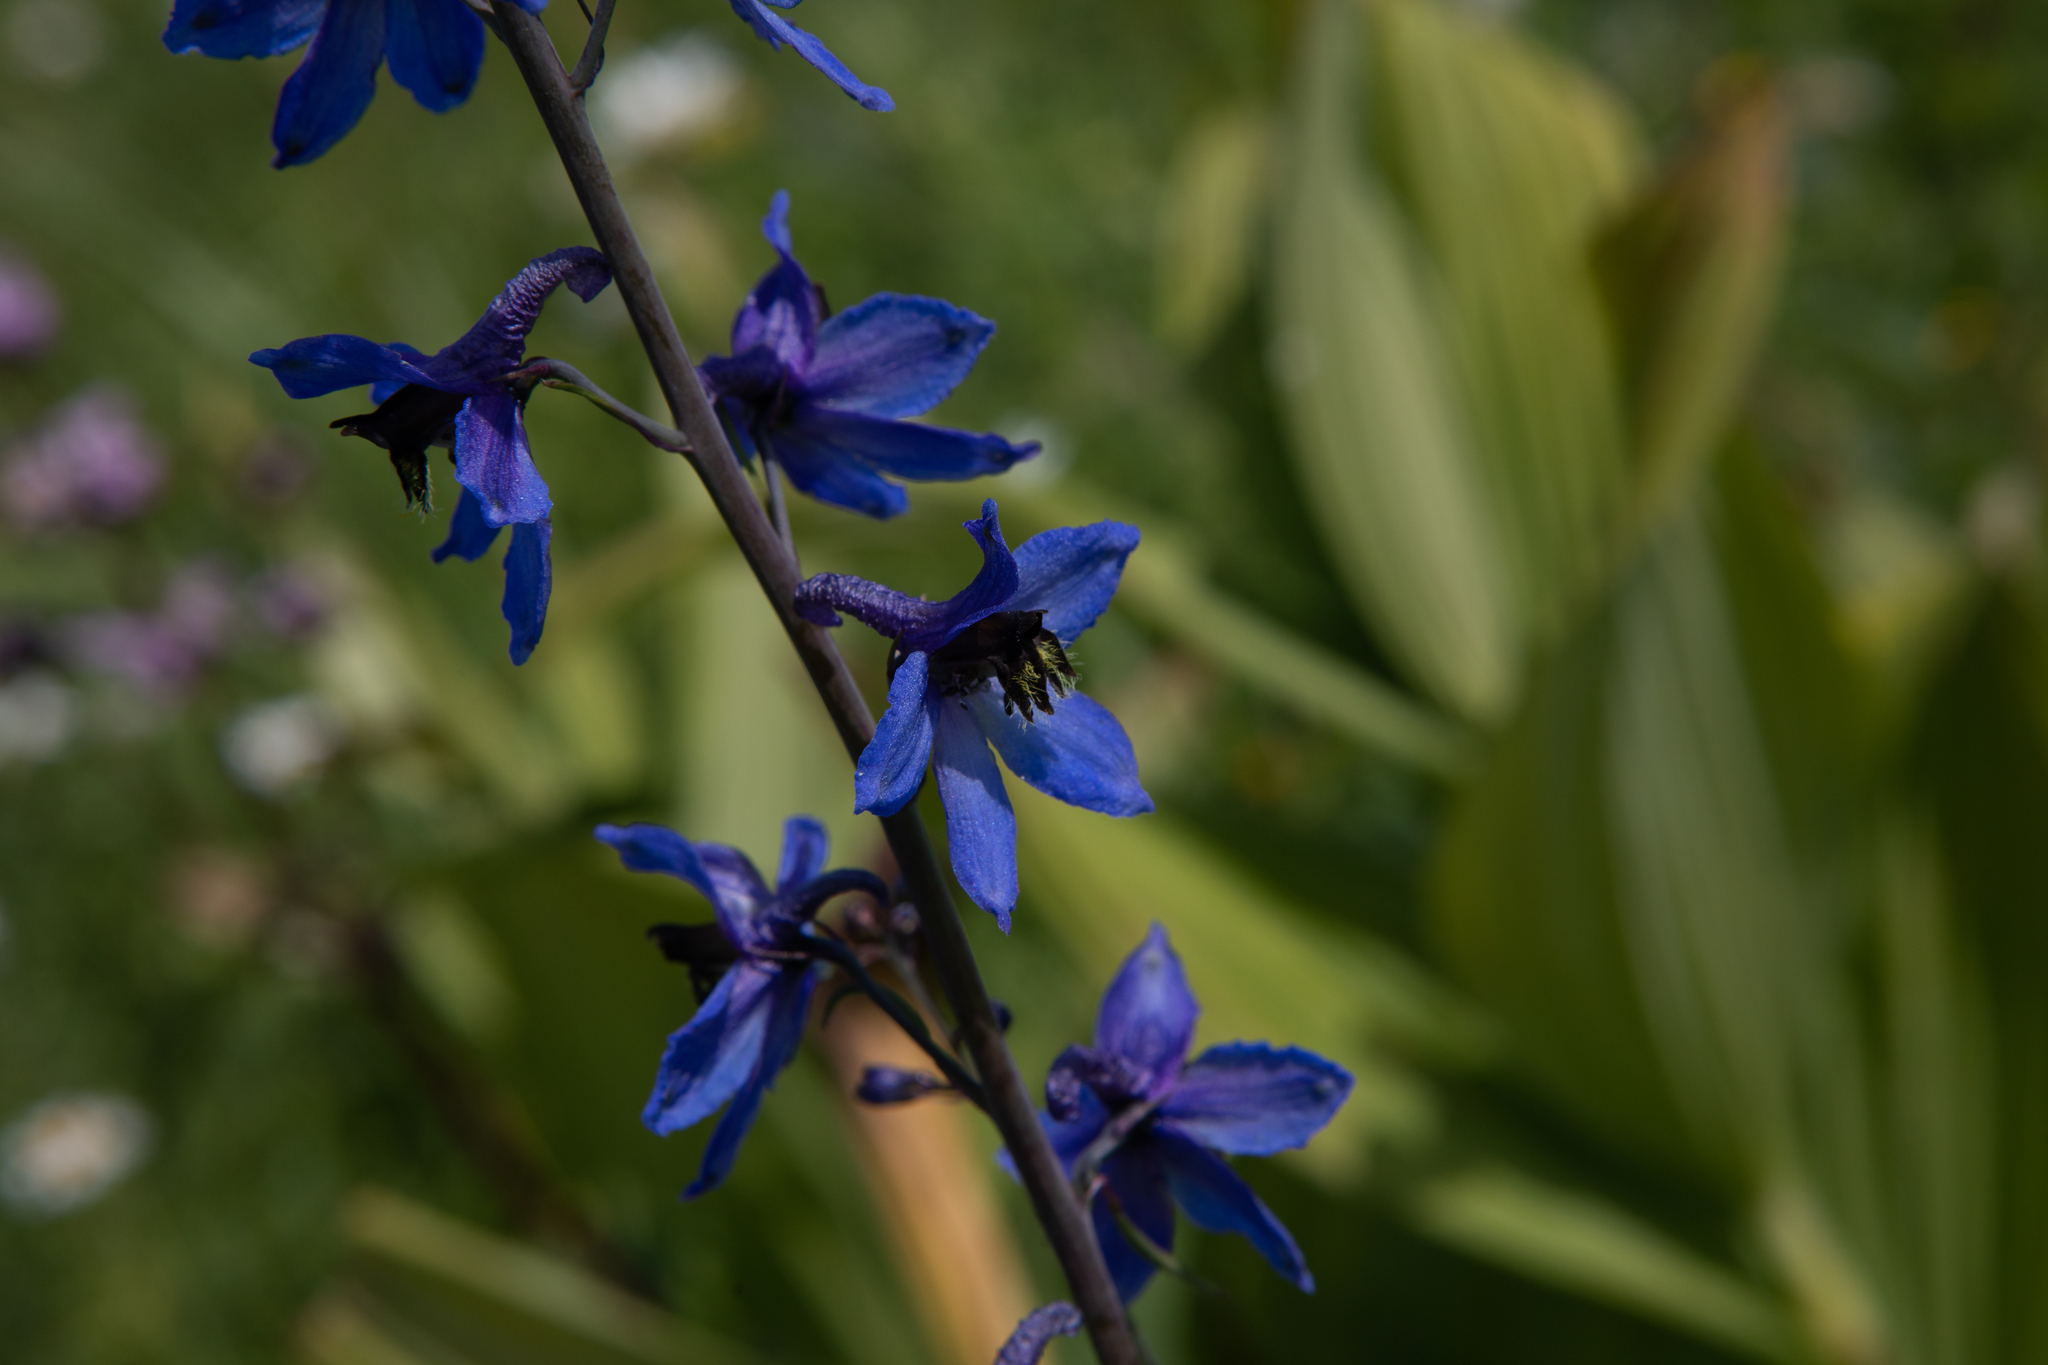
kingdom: Plantae
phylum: Tracheophyta
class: Magnoliopsida
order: Ranunculales
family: Ranunculaceae
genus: Delphinium
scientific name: Delphinium elatum
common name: Candle larkspur
